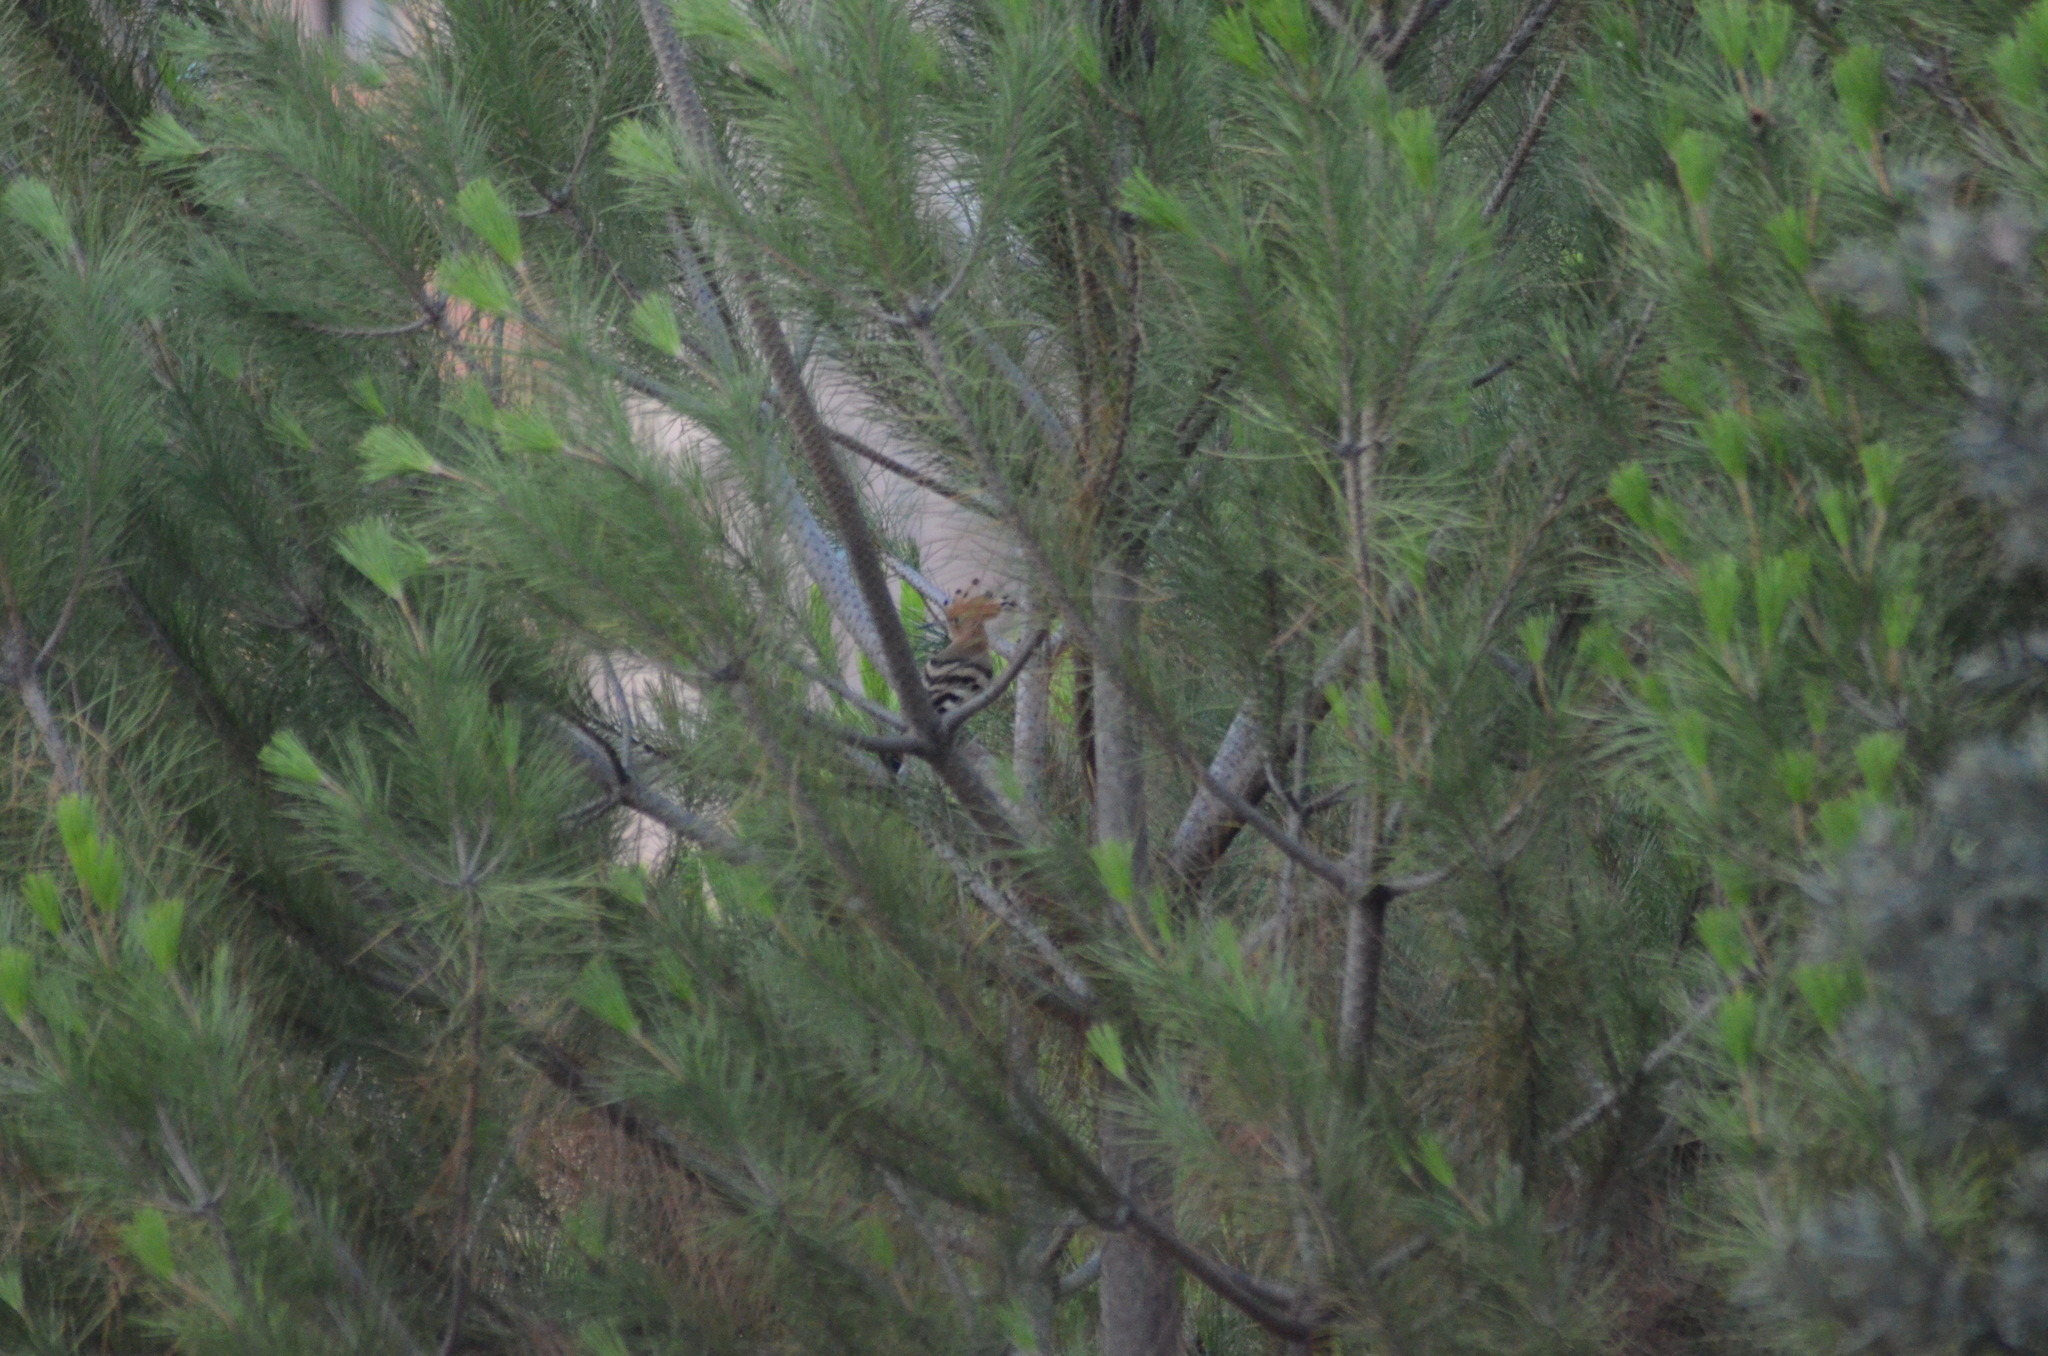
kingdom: Animalia
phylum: Chordata
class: Aves
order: Bucerotiformes
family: Upupidae
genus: Upupa
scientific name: Upupa epops
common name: Eurasian hoopoe
